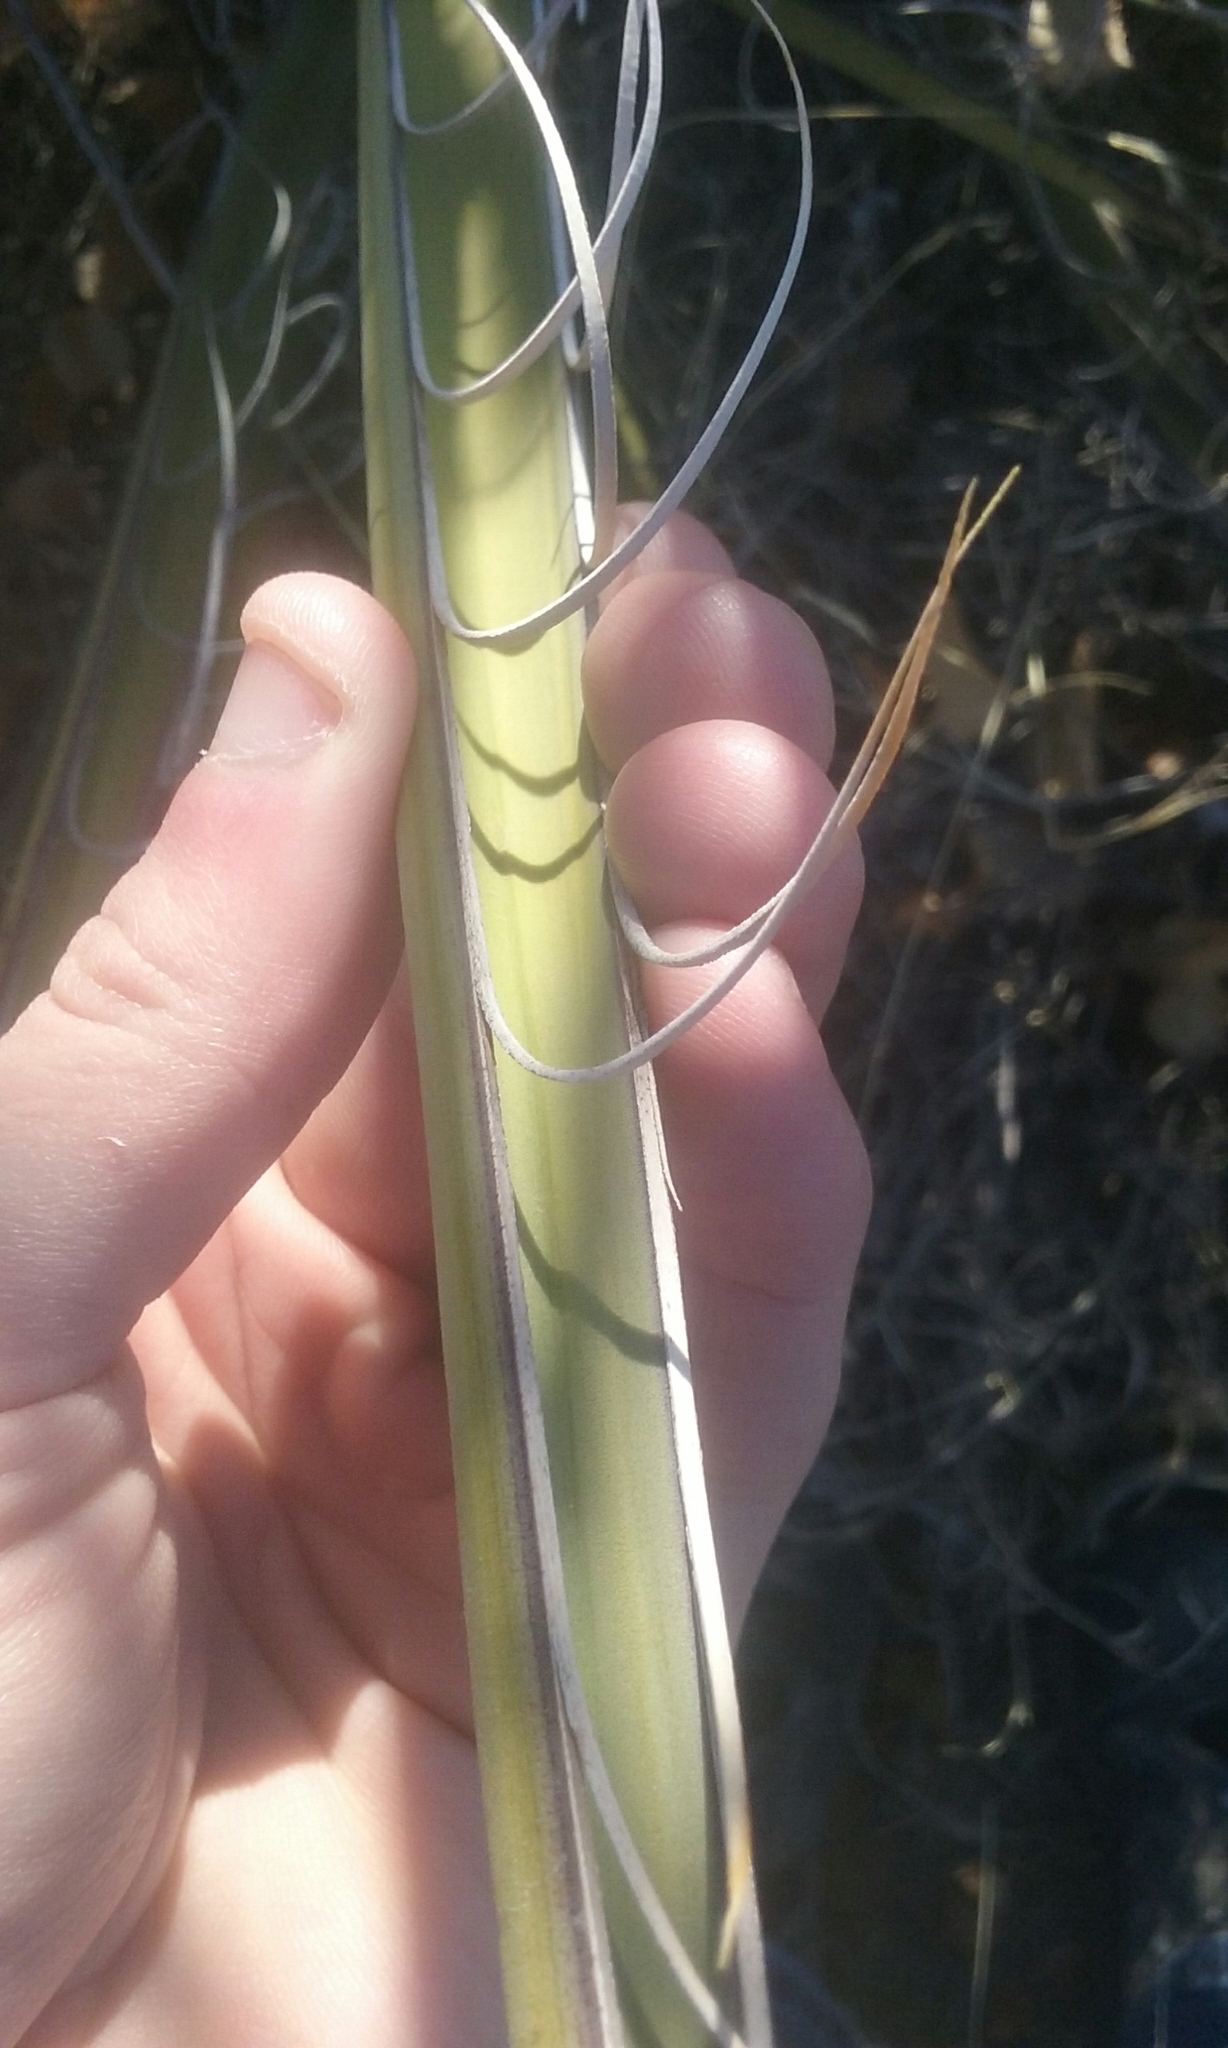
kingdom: Plantae
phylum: Tracheophyta
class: Liliopsida
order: Asparagales
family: Asparagaceae
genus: Yucca
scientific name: Yucca baccata
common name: Banana yucca
